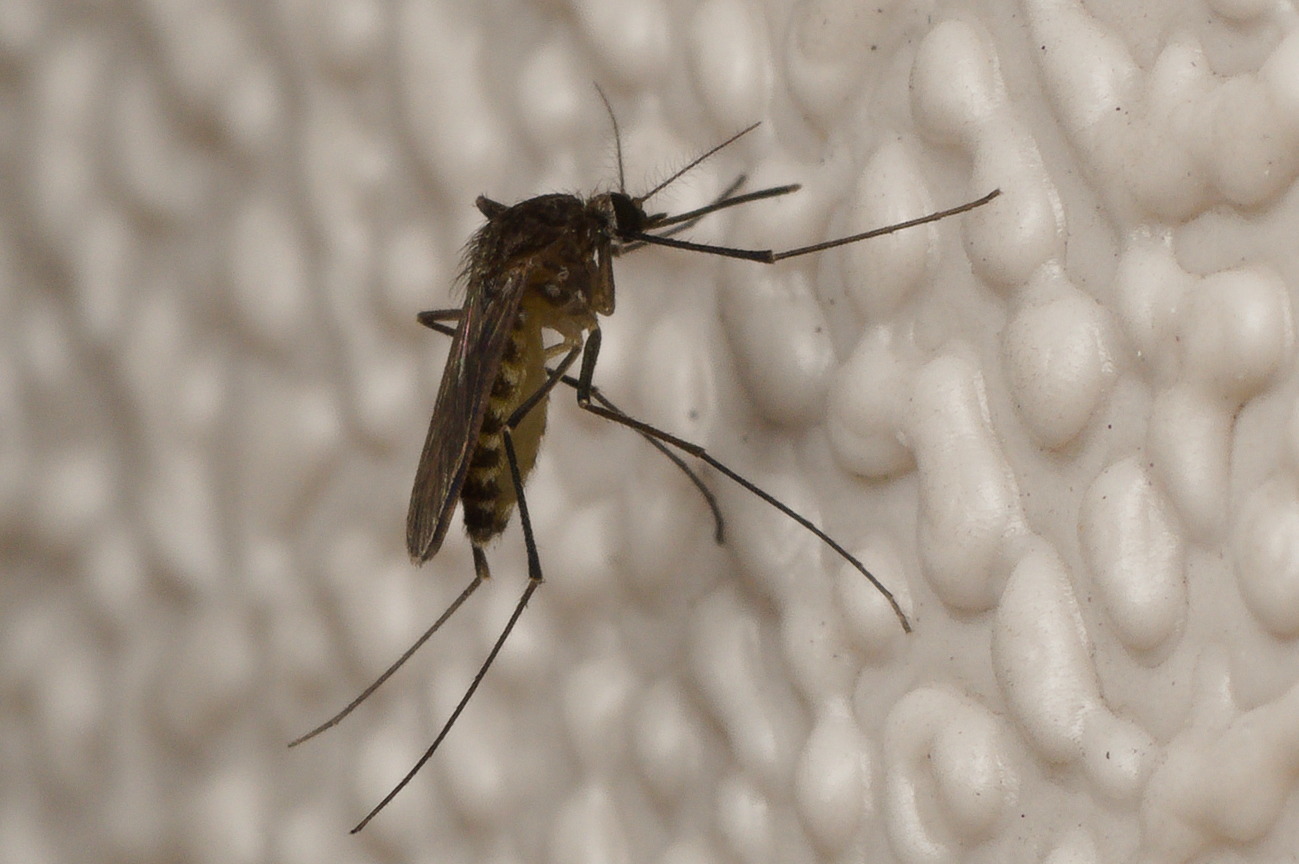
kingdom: Animalia
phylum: Arthropoda
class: Insecta
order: Diptera
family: Culicidae
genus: Culex
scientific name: Culex erraticus
